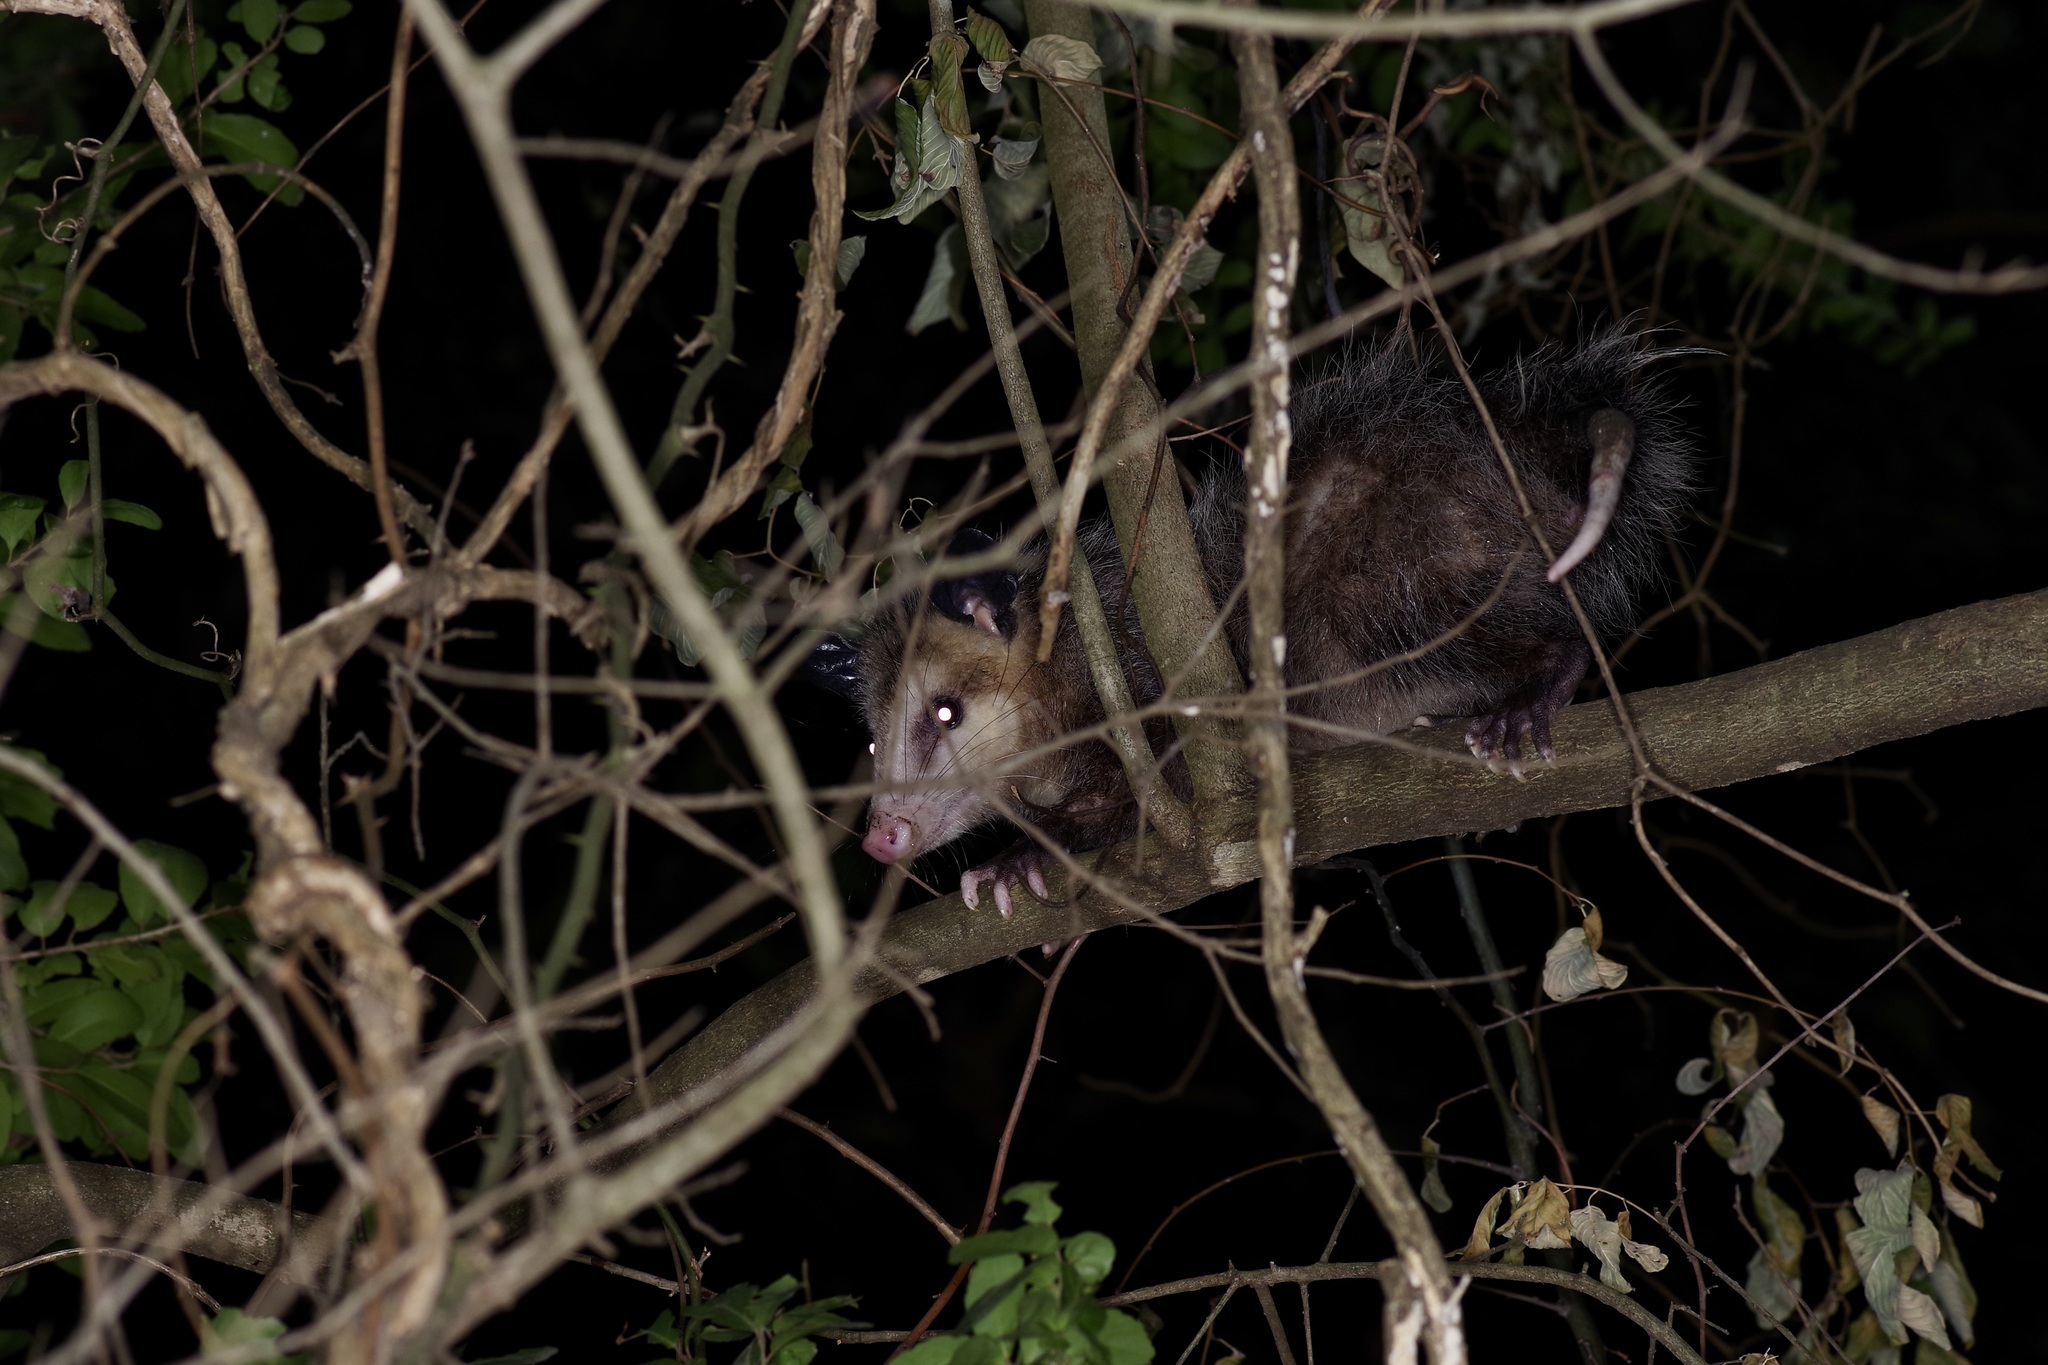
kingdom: Animalia
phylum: Chordata
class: Mammalia
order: Didelphimorphia
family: Didelphidae
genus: Didelphis
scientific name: Didelphis virginiana
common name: Virginia opossum
